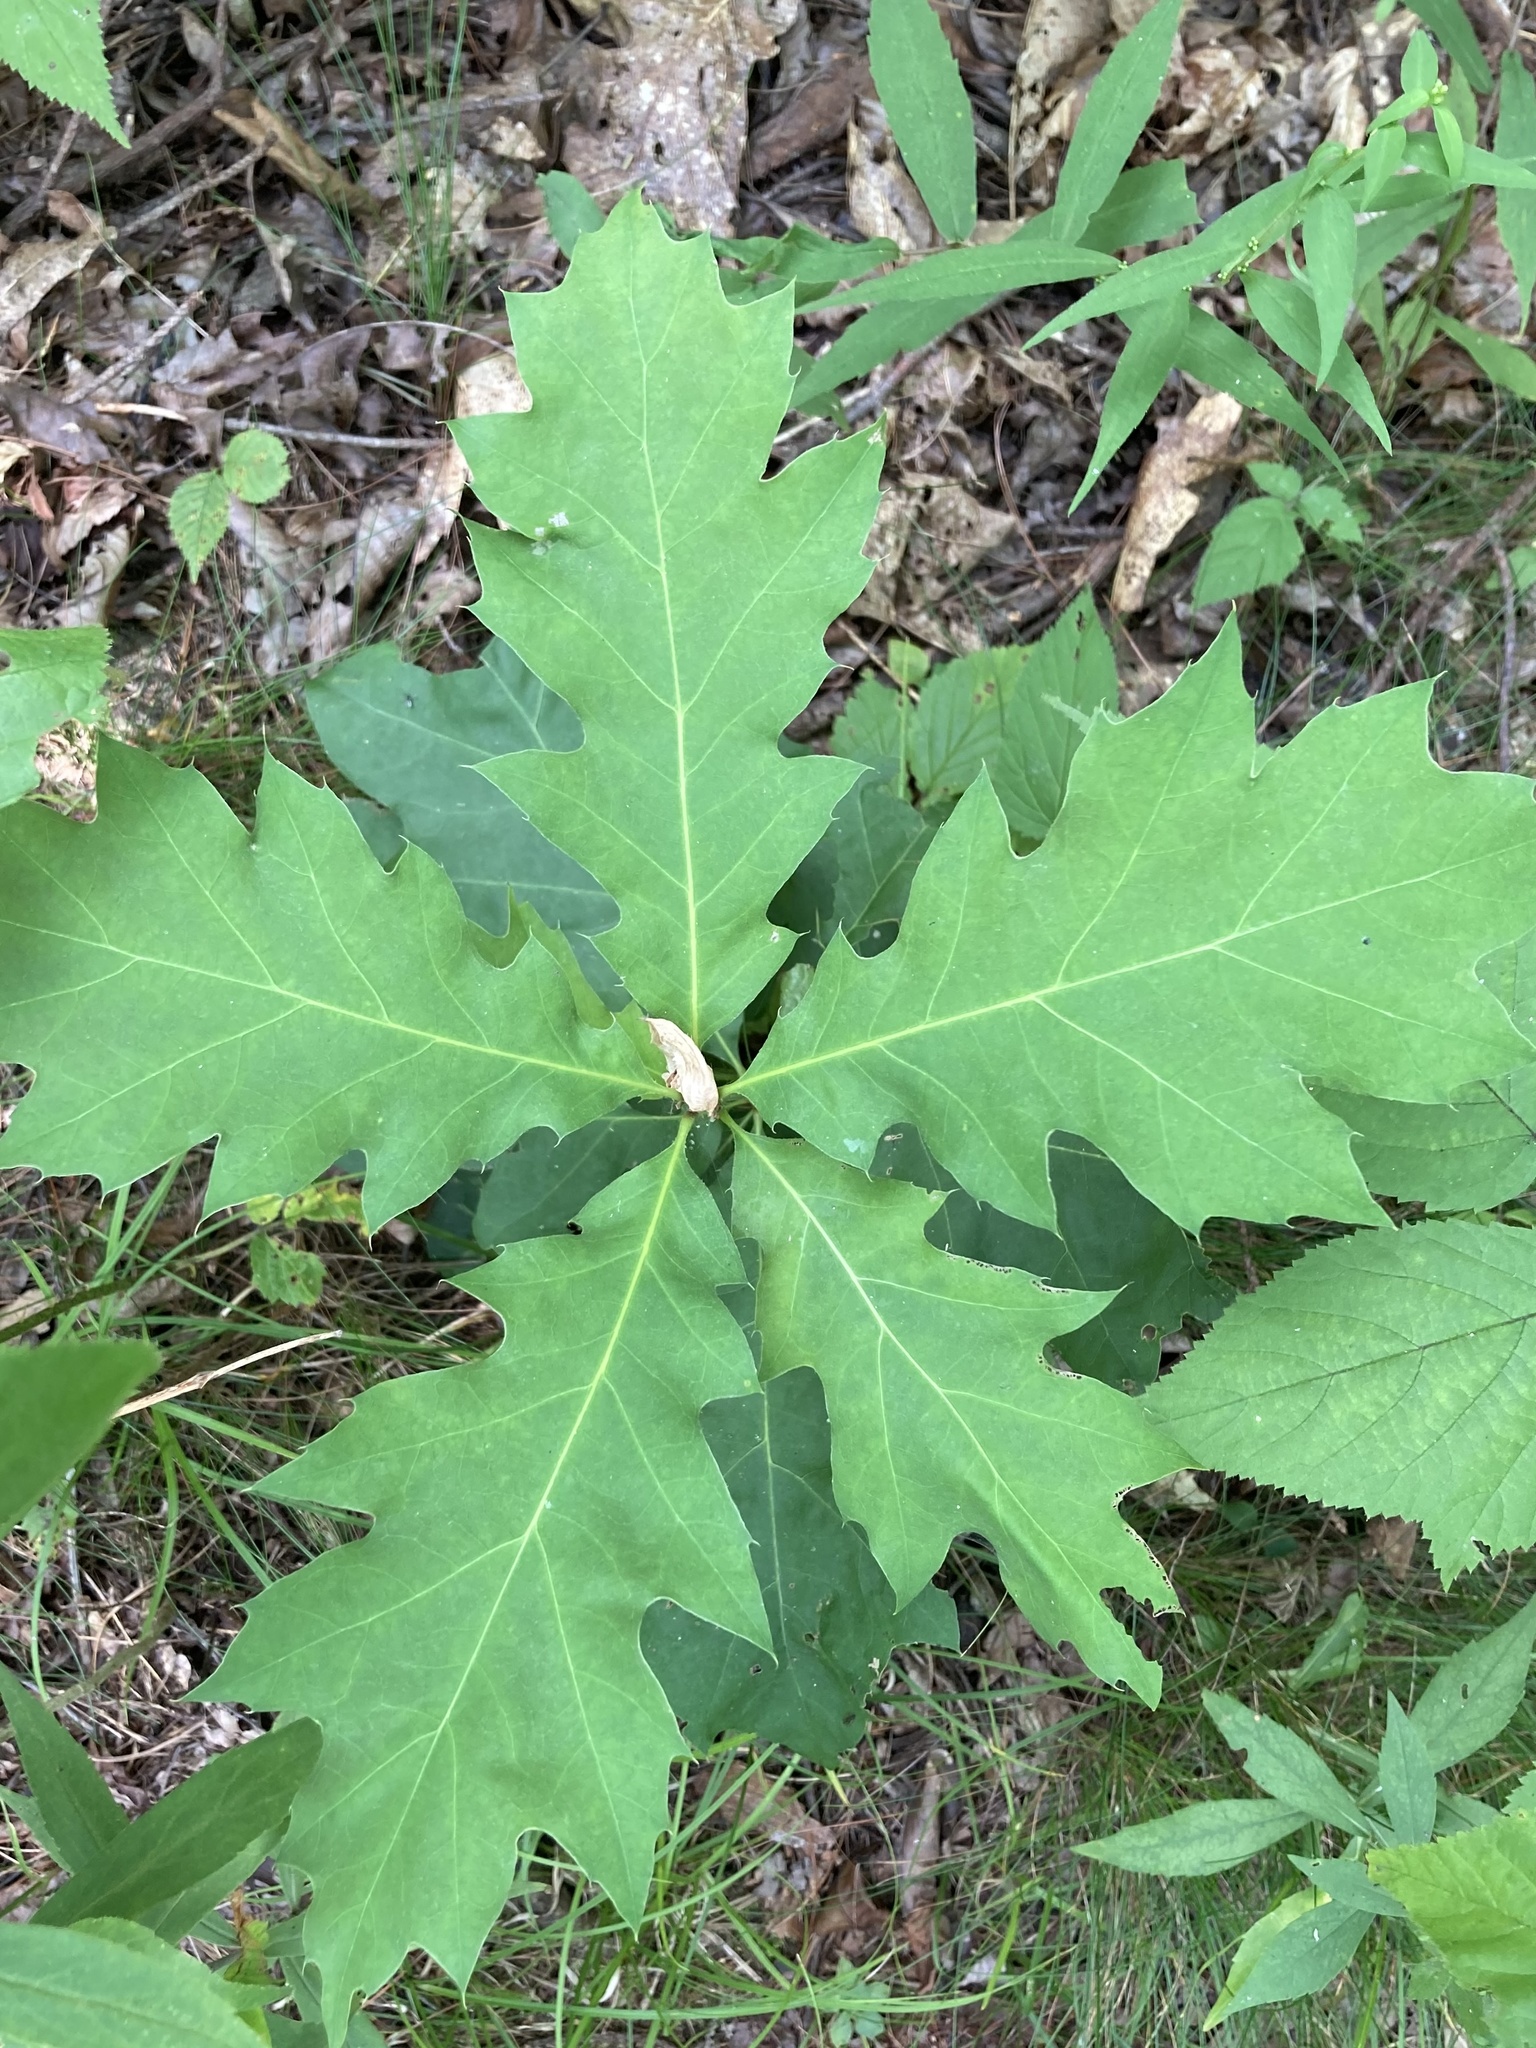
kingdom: Plantae
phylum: Tracheophyta
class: Magnoliopsida
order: Fagales
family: Fagaceae
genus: Quercus
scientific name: Quercus rubra
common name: Red oak
